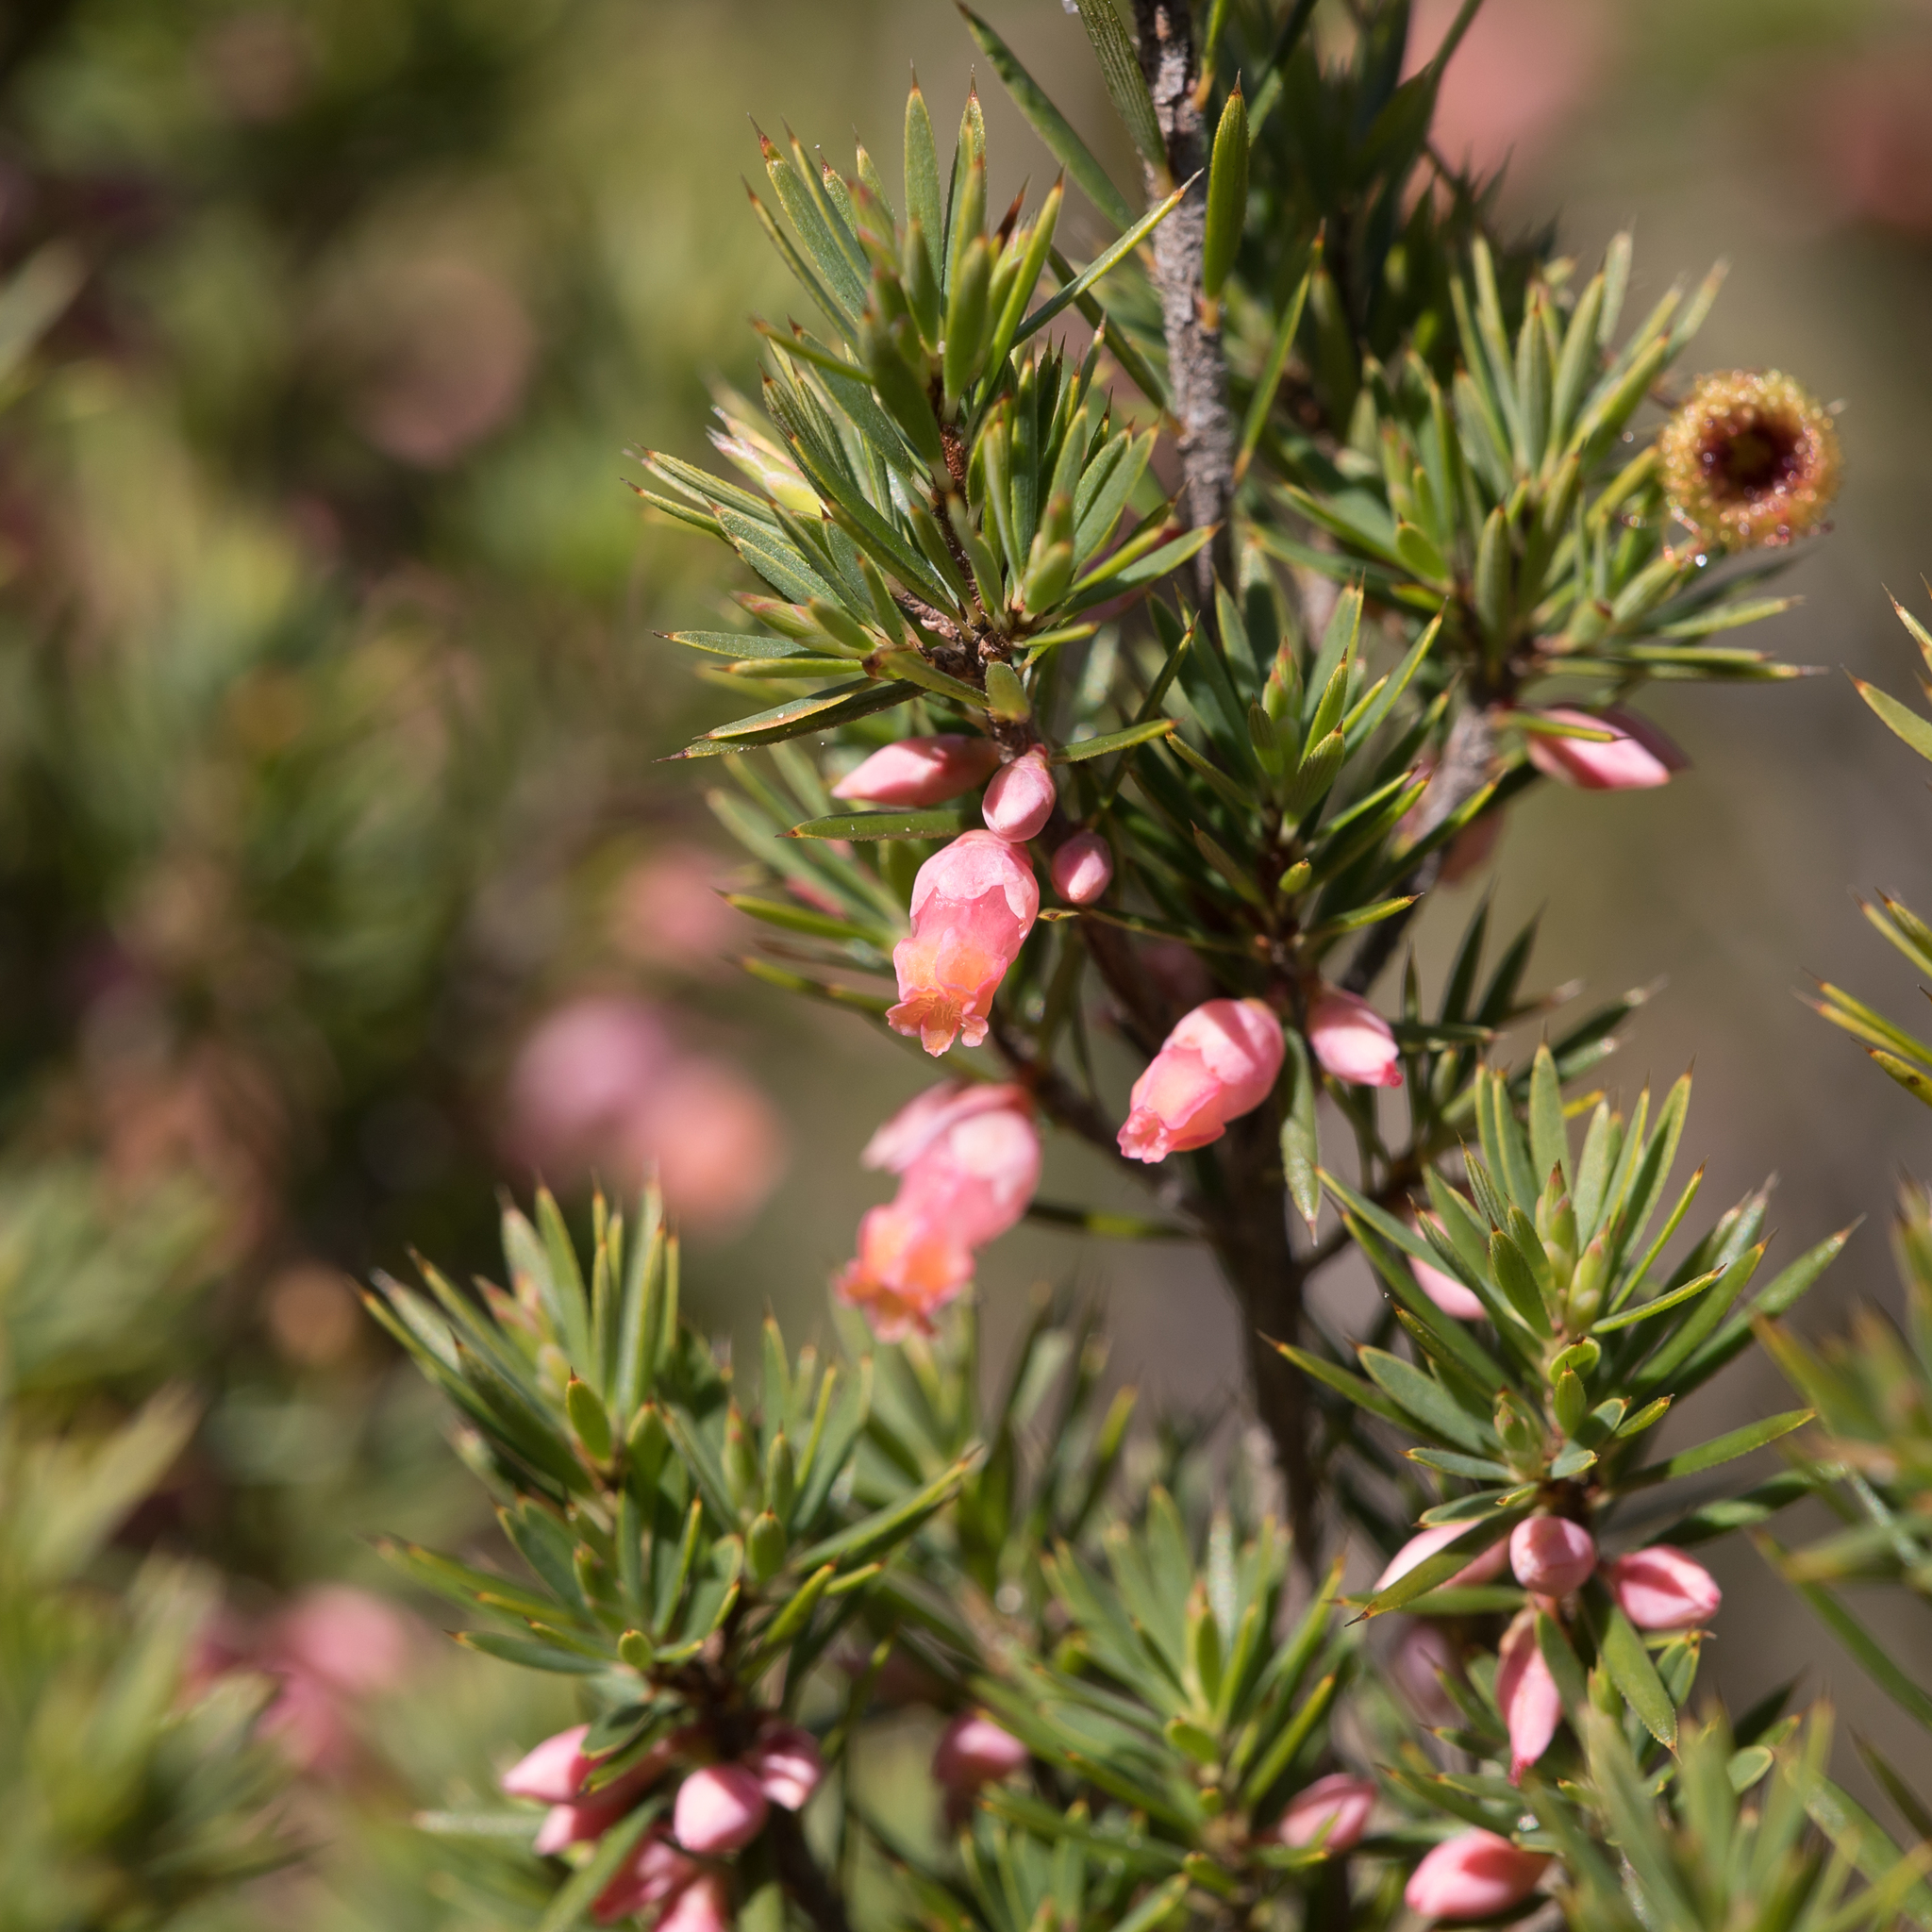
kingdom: Plantae
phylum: Tracheophyta
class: Magnoliopsida
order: Ericales
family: Ericaceae
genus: Brachyloma
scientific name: Brachyloma ericoides
